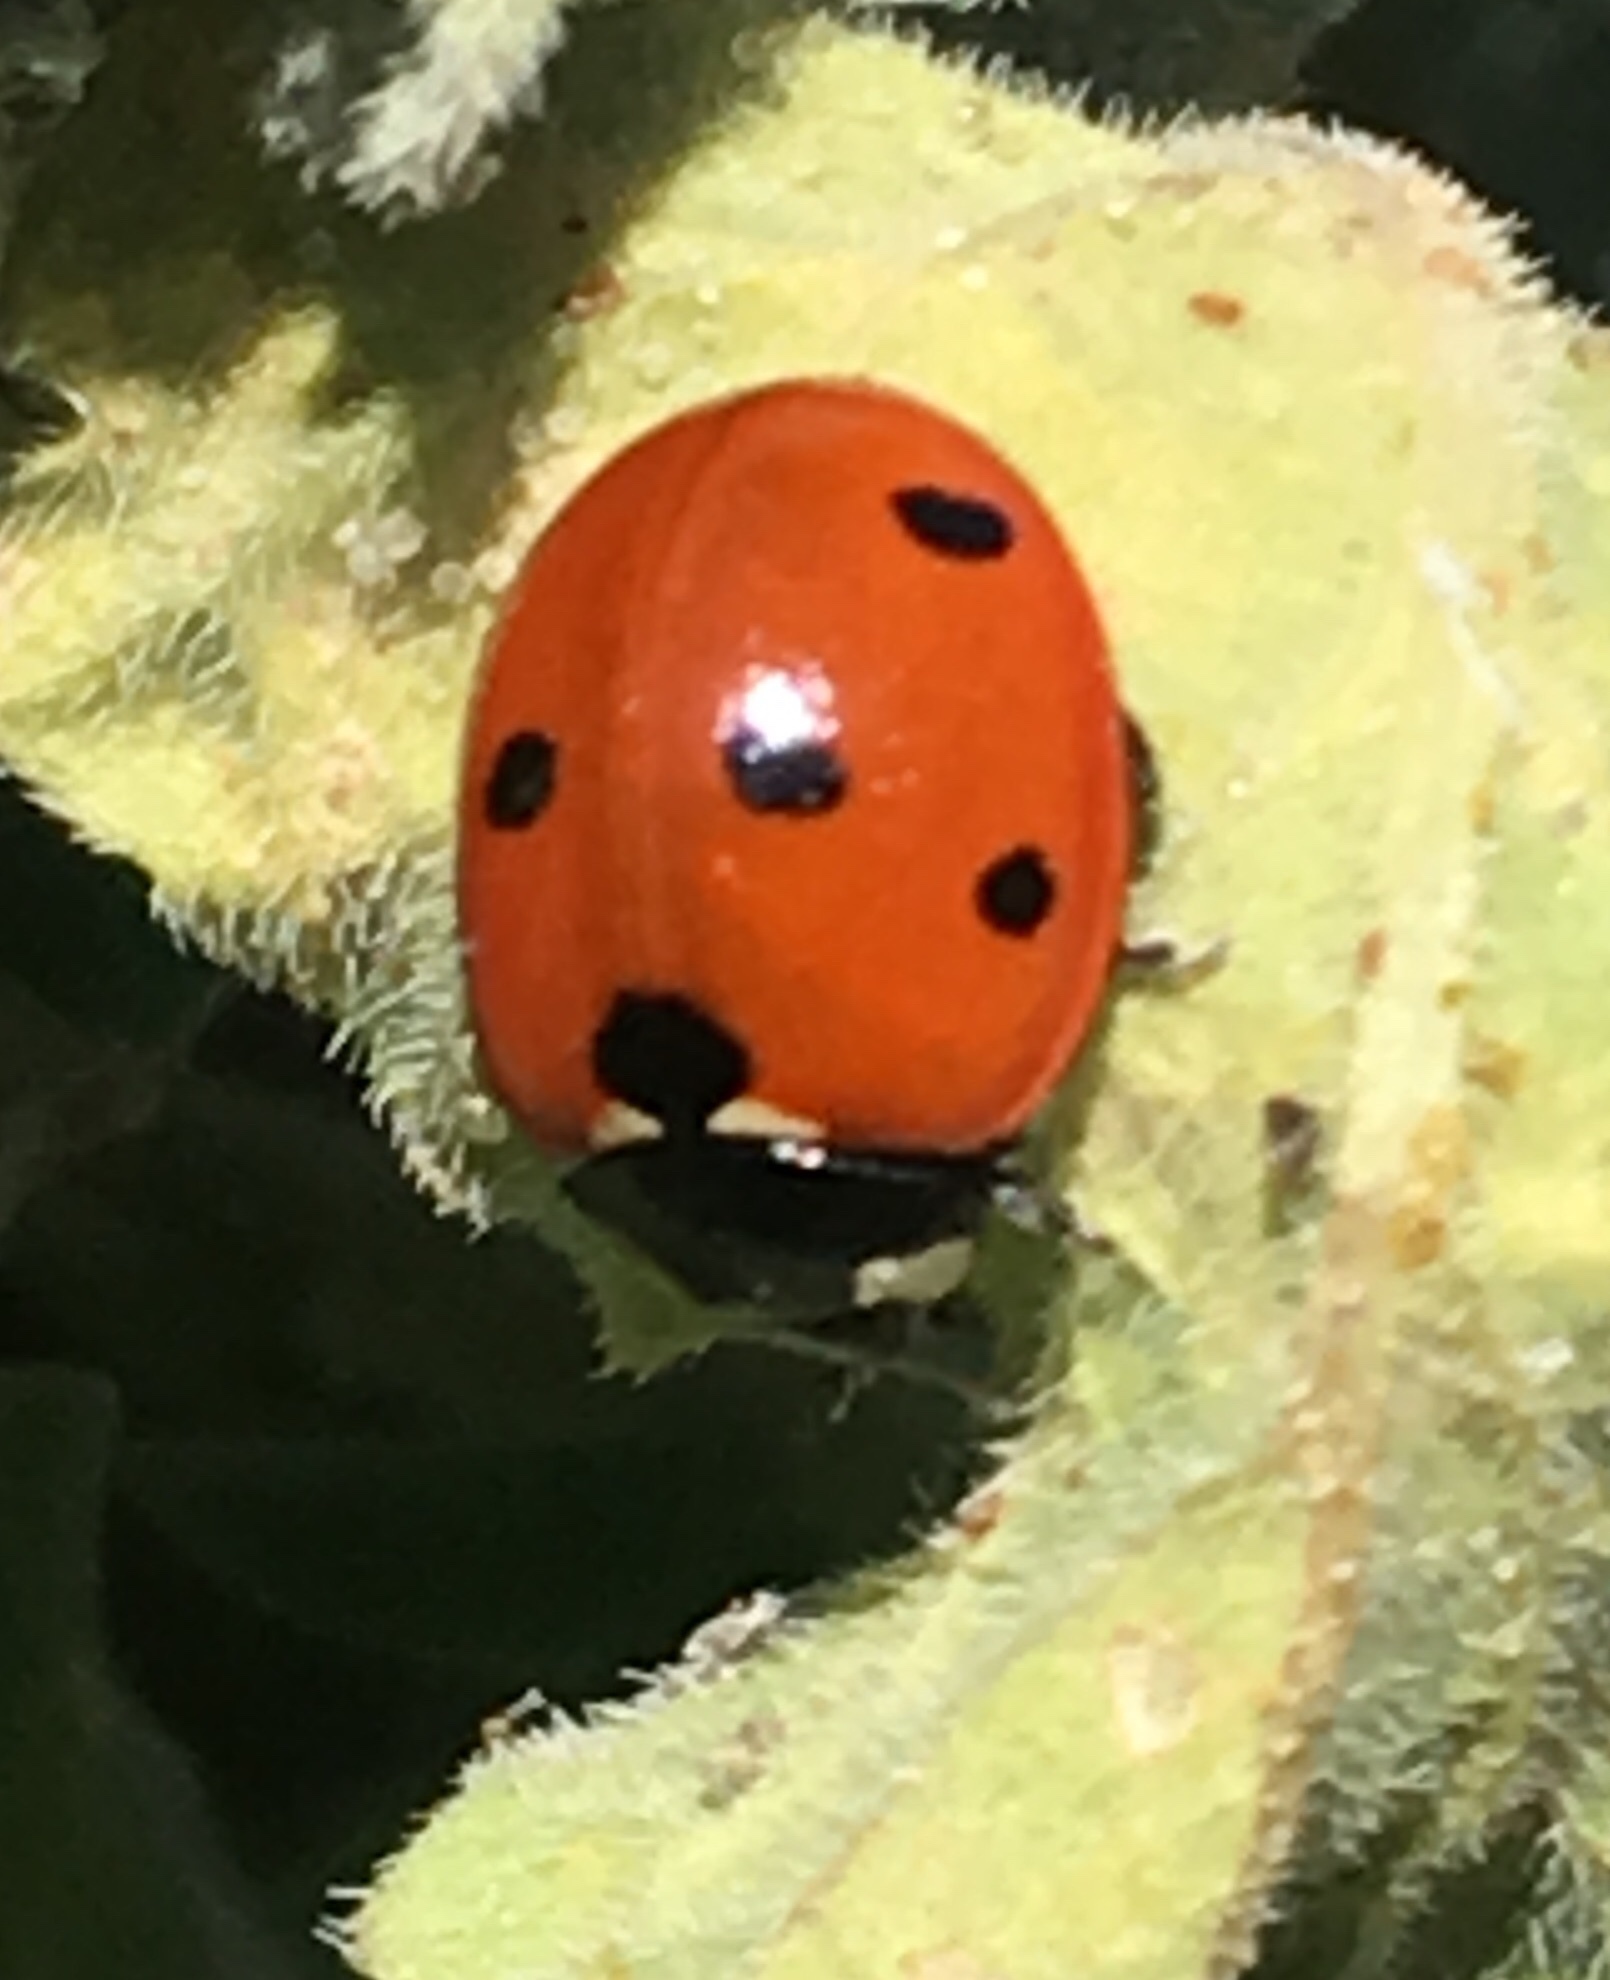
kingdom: Animalia
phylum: Arthropoda
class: Insecta
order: Coleoptera
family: Coccinellidae
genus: Coccinella
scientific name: Coccinella septempunctata
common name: Sevenspotted lady beetle
